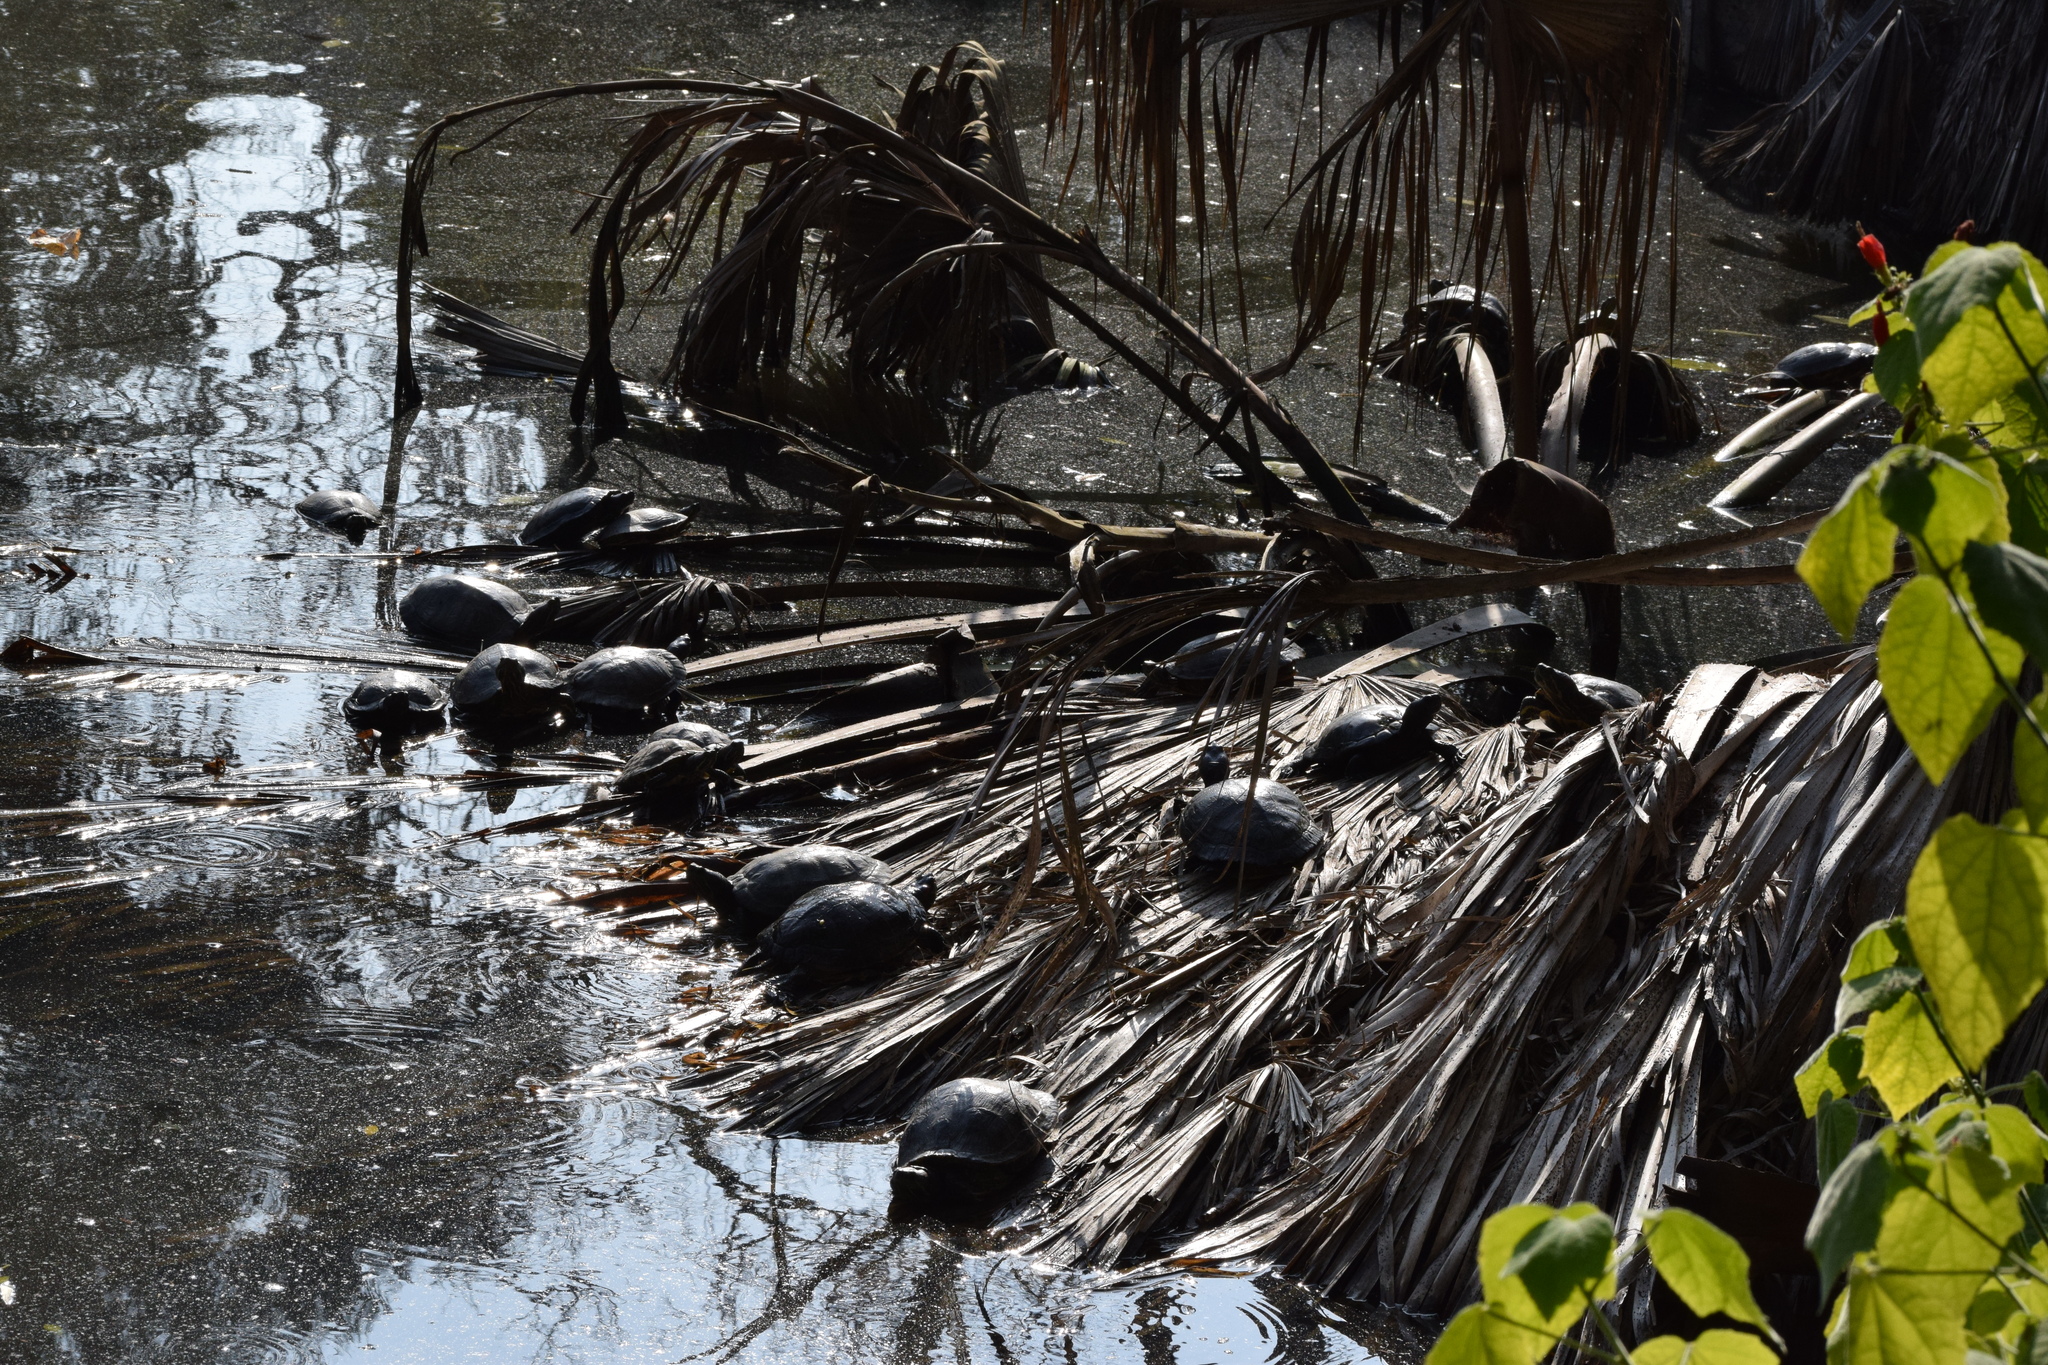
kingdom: Animalia
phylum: Chordata
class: Testudines
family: Emydidae
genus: Trachemys
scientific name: Trachemys scripta
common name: Slider
